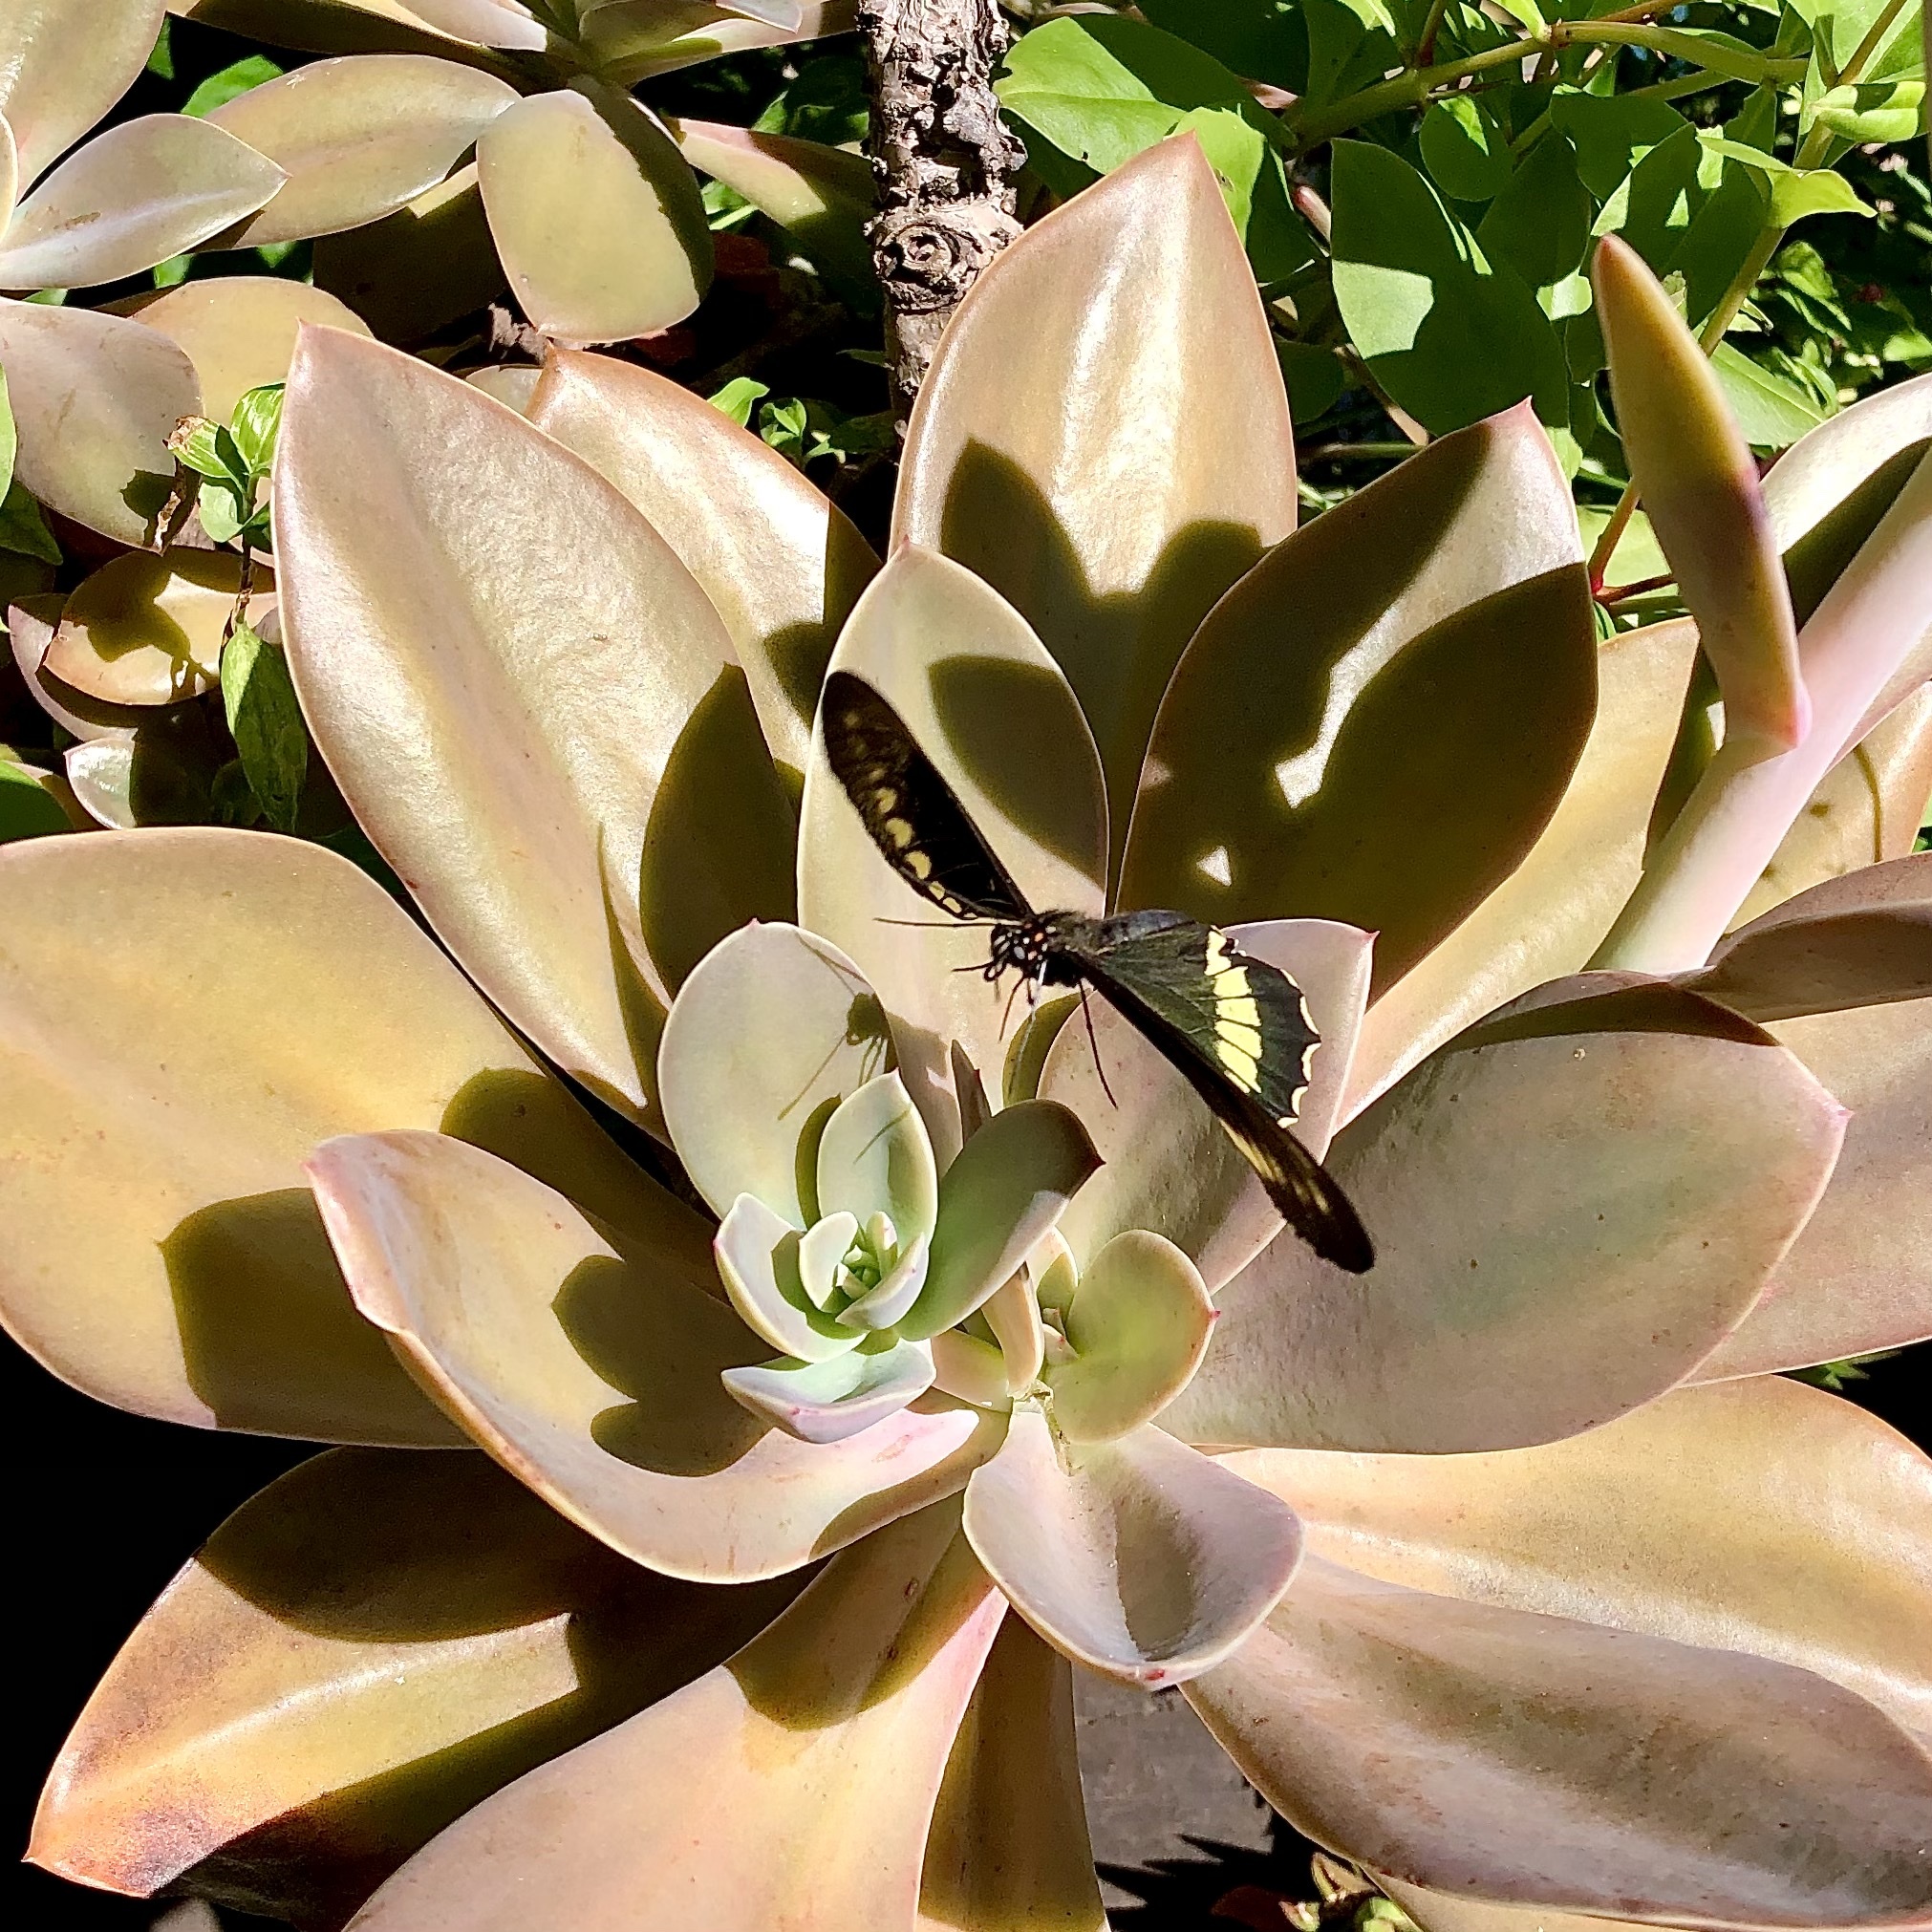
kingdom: Animalia
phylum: Arthropoda
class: Insecta
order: Lepidoptera
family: Papilionidae
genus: Battus
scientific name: Battus polydamas
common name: Polydamas swallowtail
